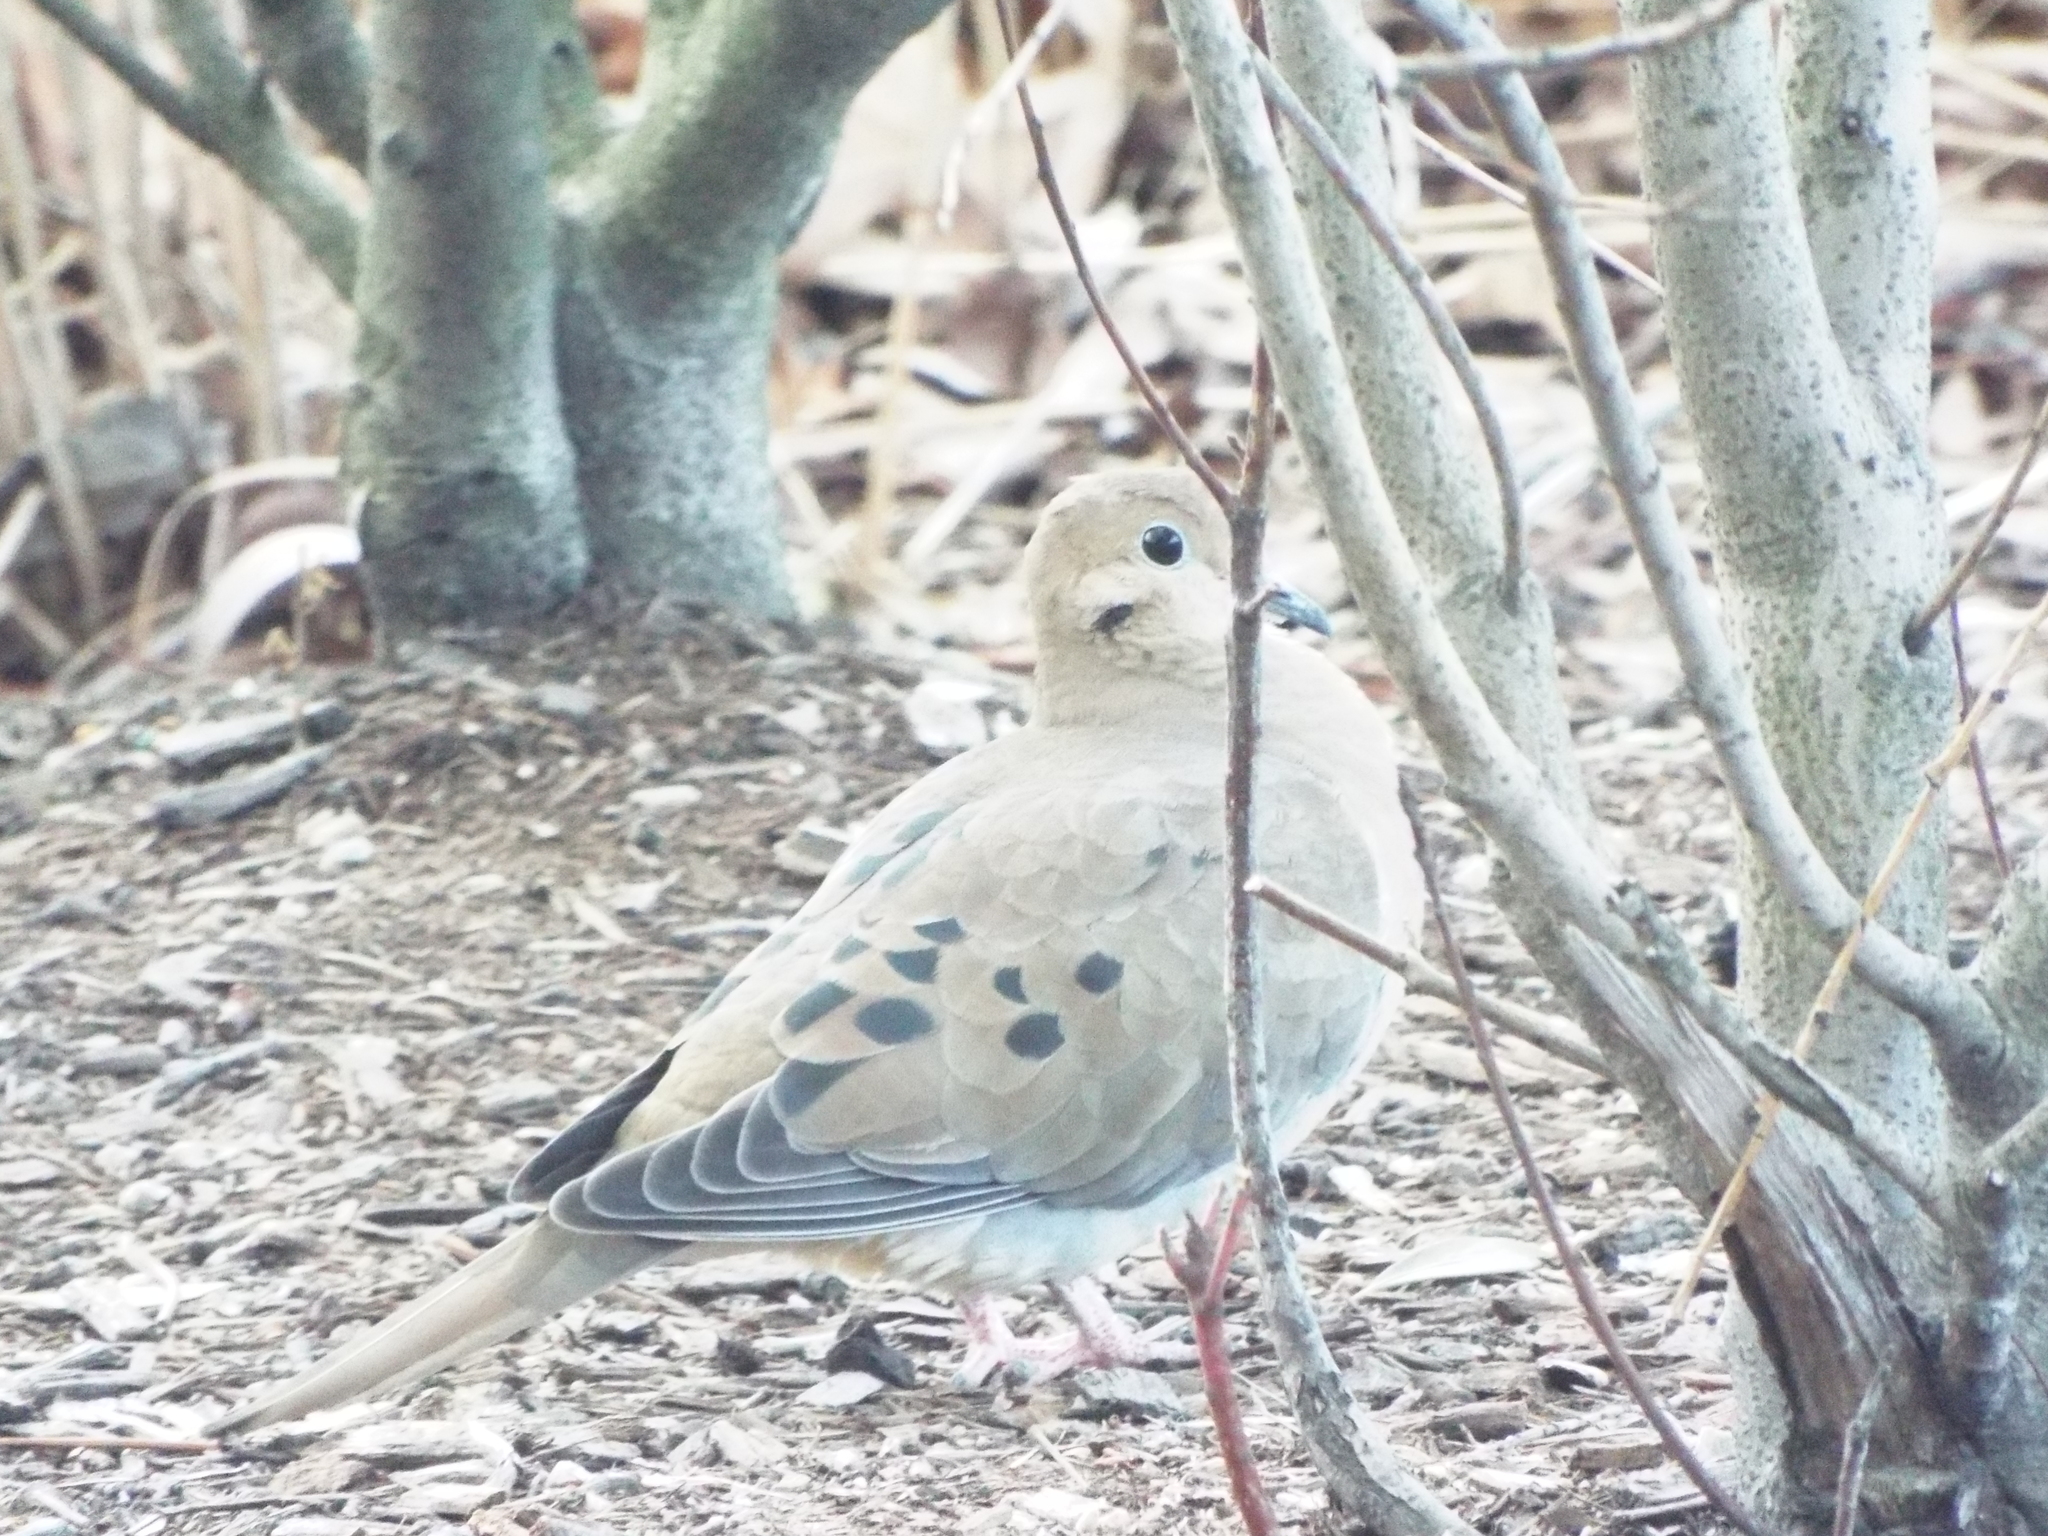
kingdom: Animalia
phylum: Chordata
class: Aves
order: Columbiformes
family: Columbidae
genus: Zenaida
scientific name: Zenaida macroura
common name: Mourning dove
